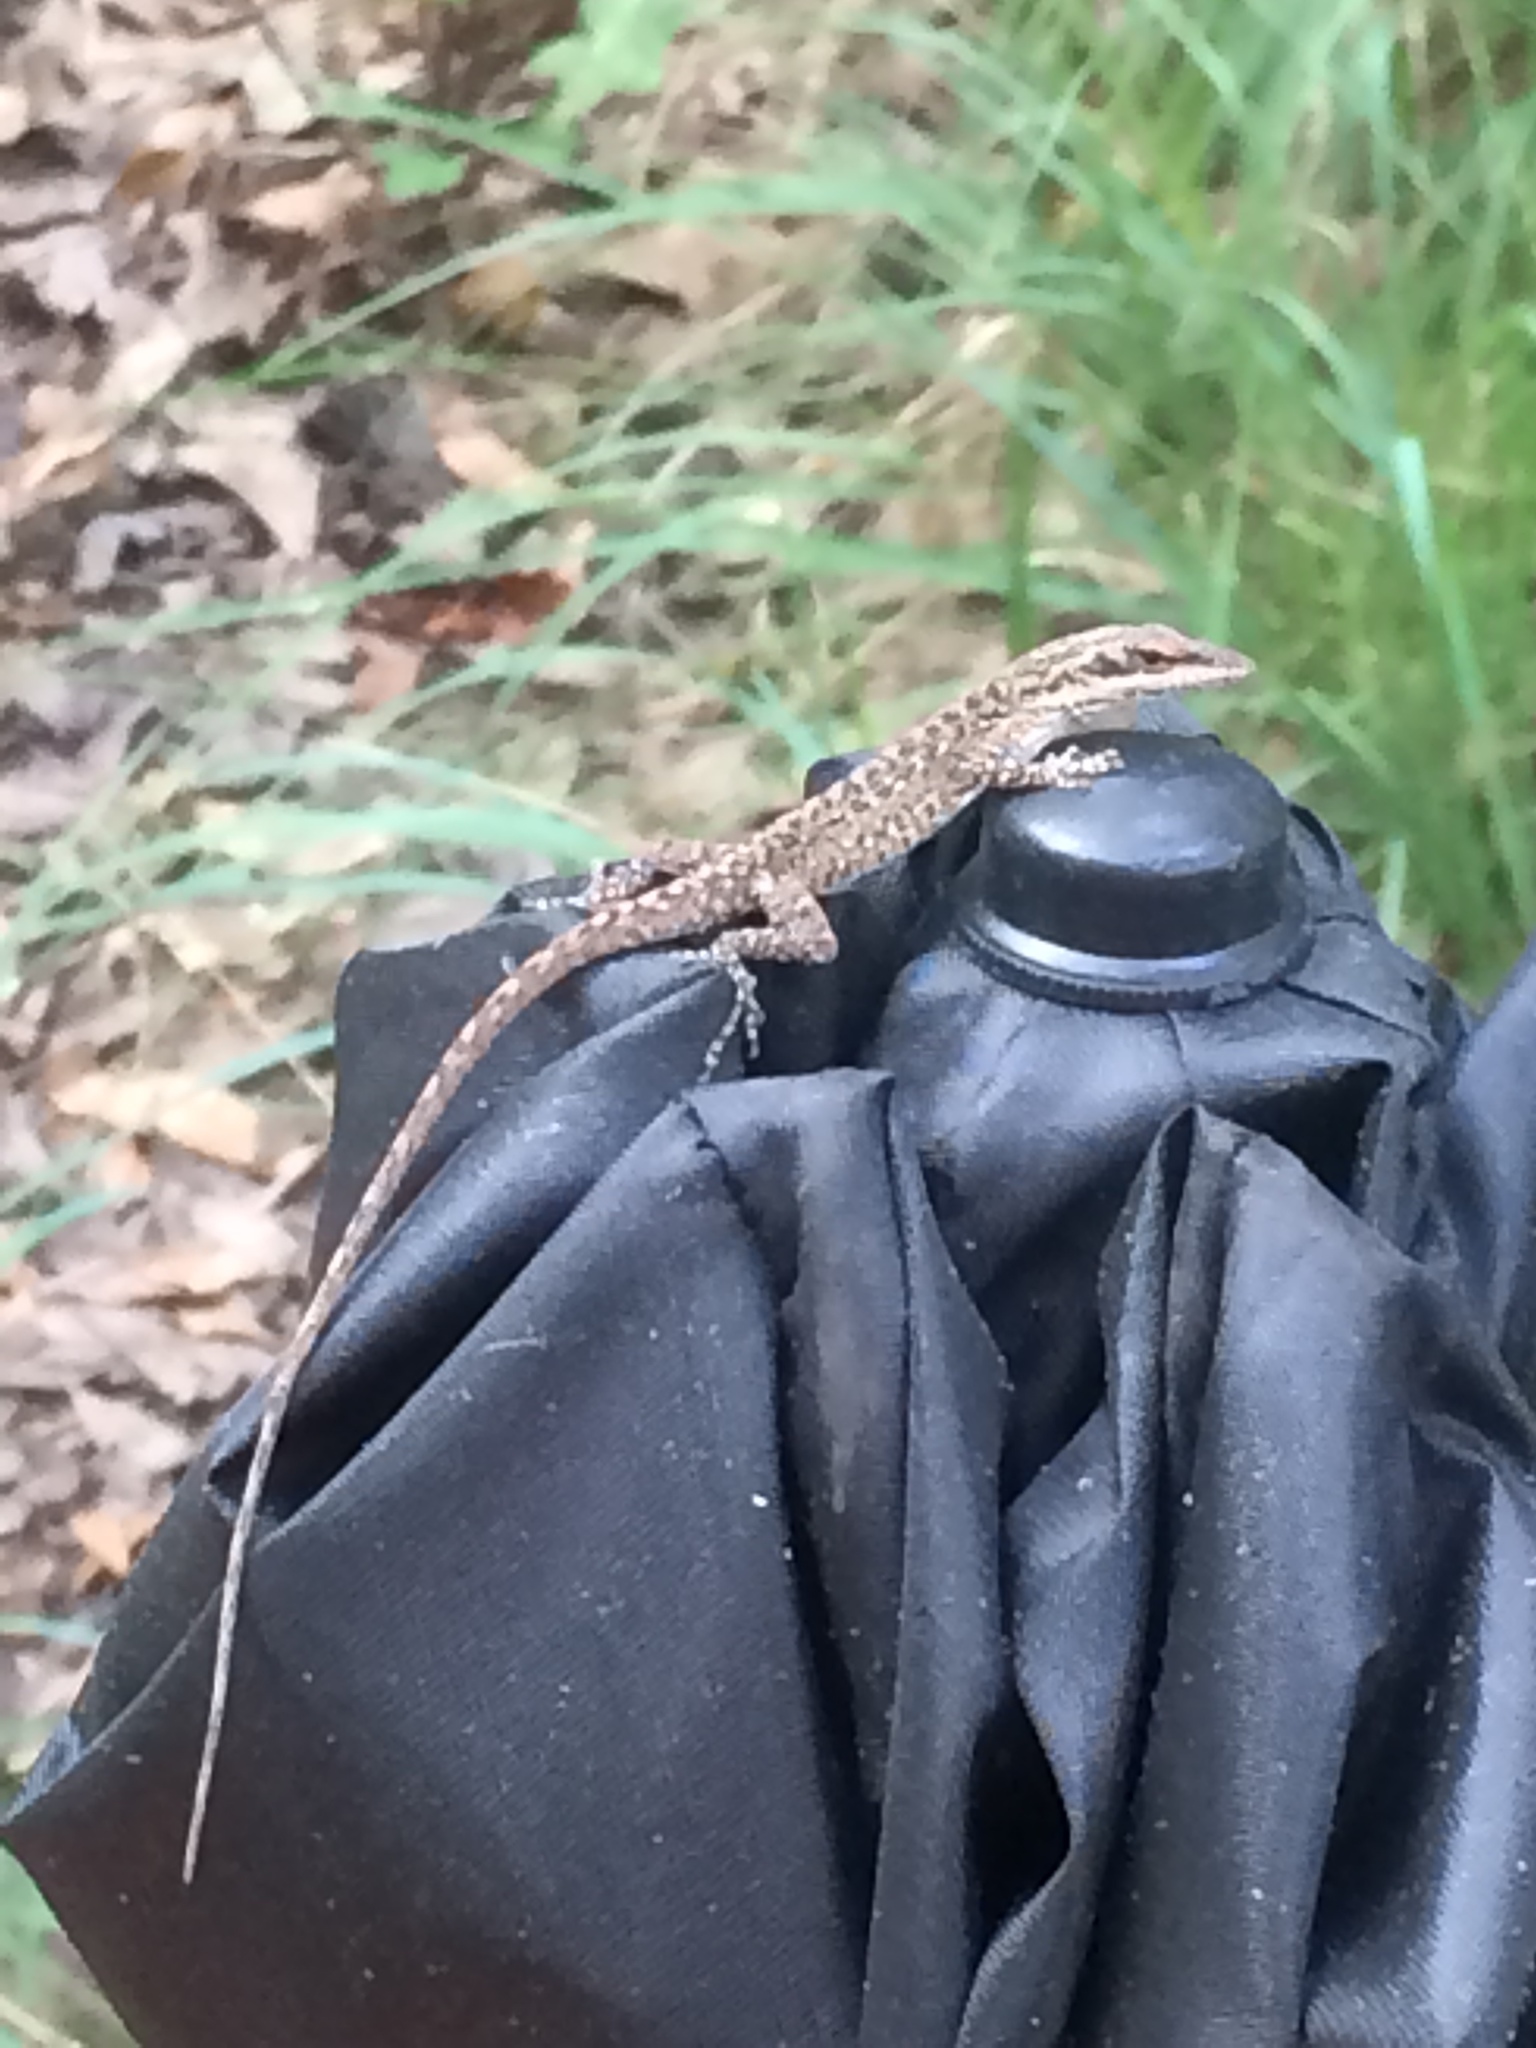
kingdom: Animalia
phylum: Chordata
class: Squamata
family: Dactyloidae
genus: Anolis
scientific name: Anolis carolinensis
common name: Green anole
